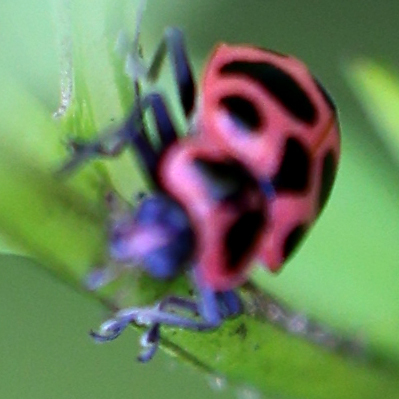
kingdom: Animalia
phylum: Arthropoda
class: Insecta
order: Coleoptera
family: Coccinellidae
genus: Coleomegilla
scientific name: Coleomegilla maculata
